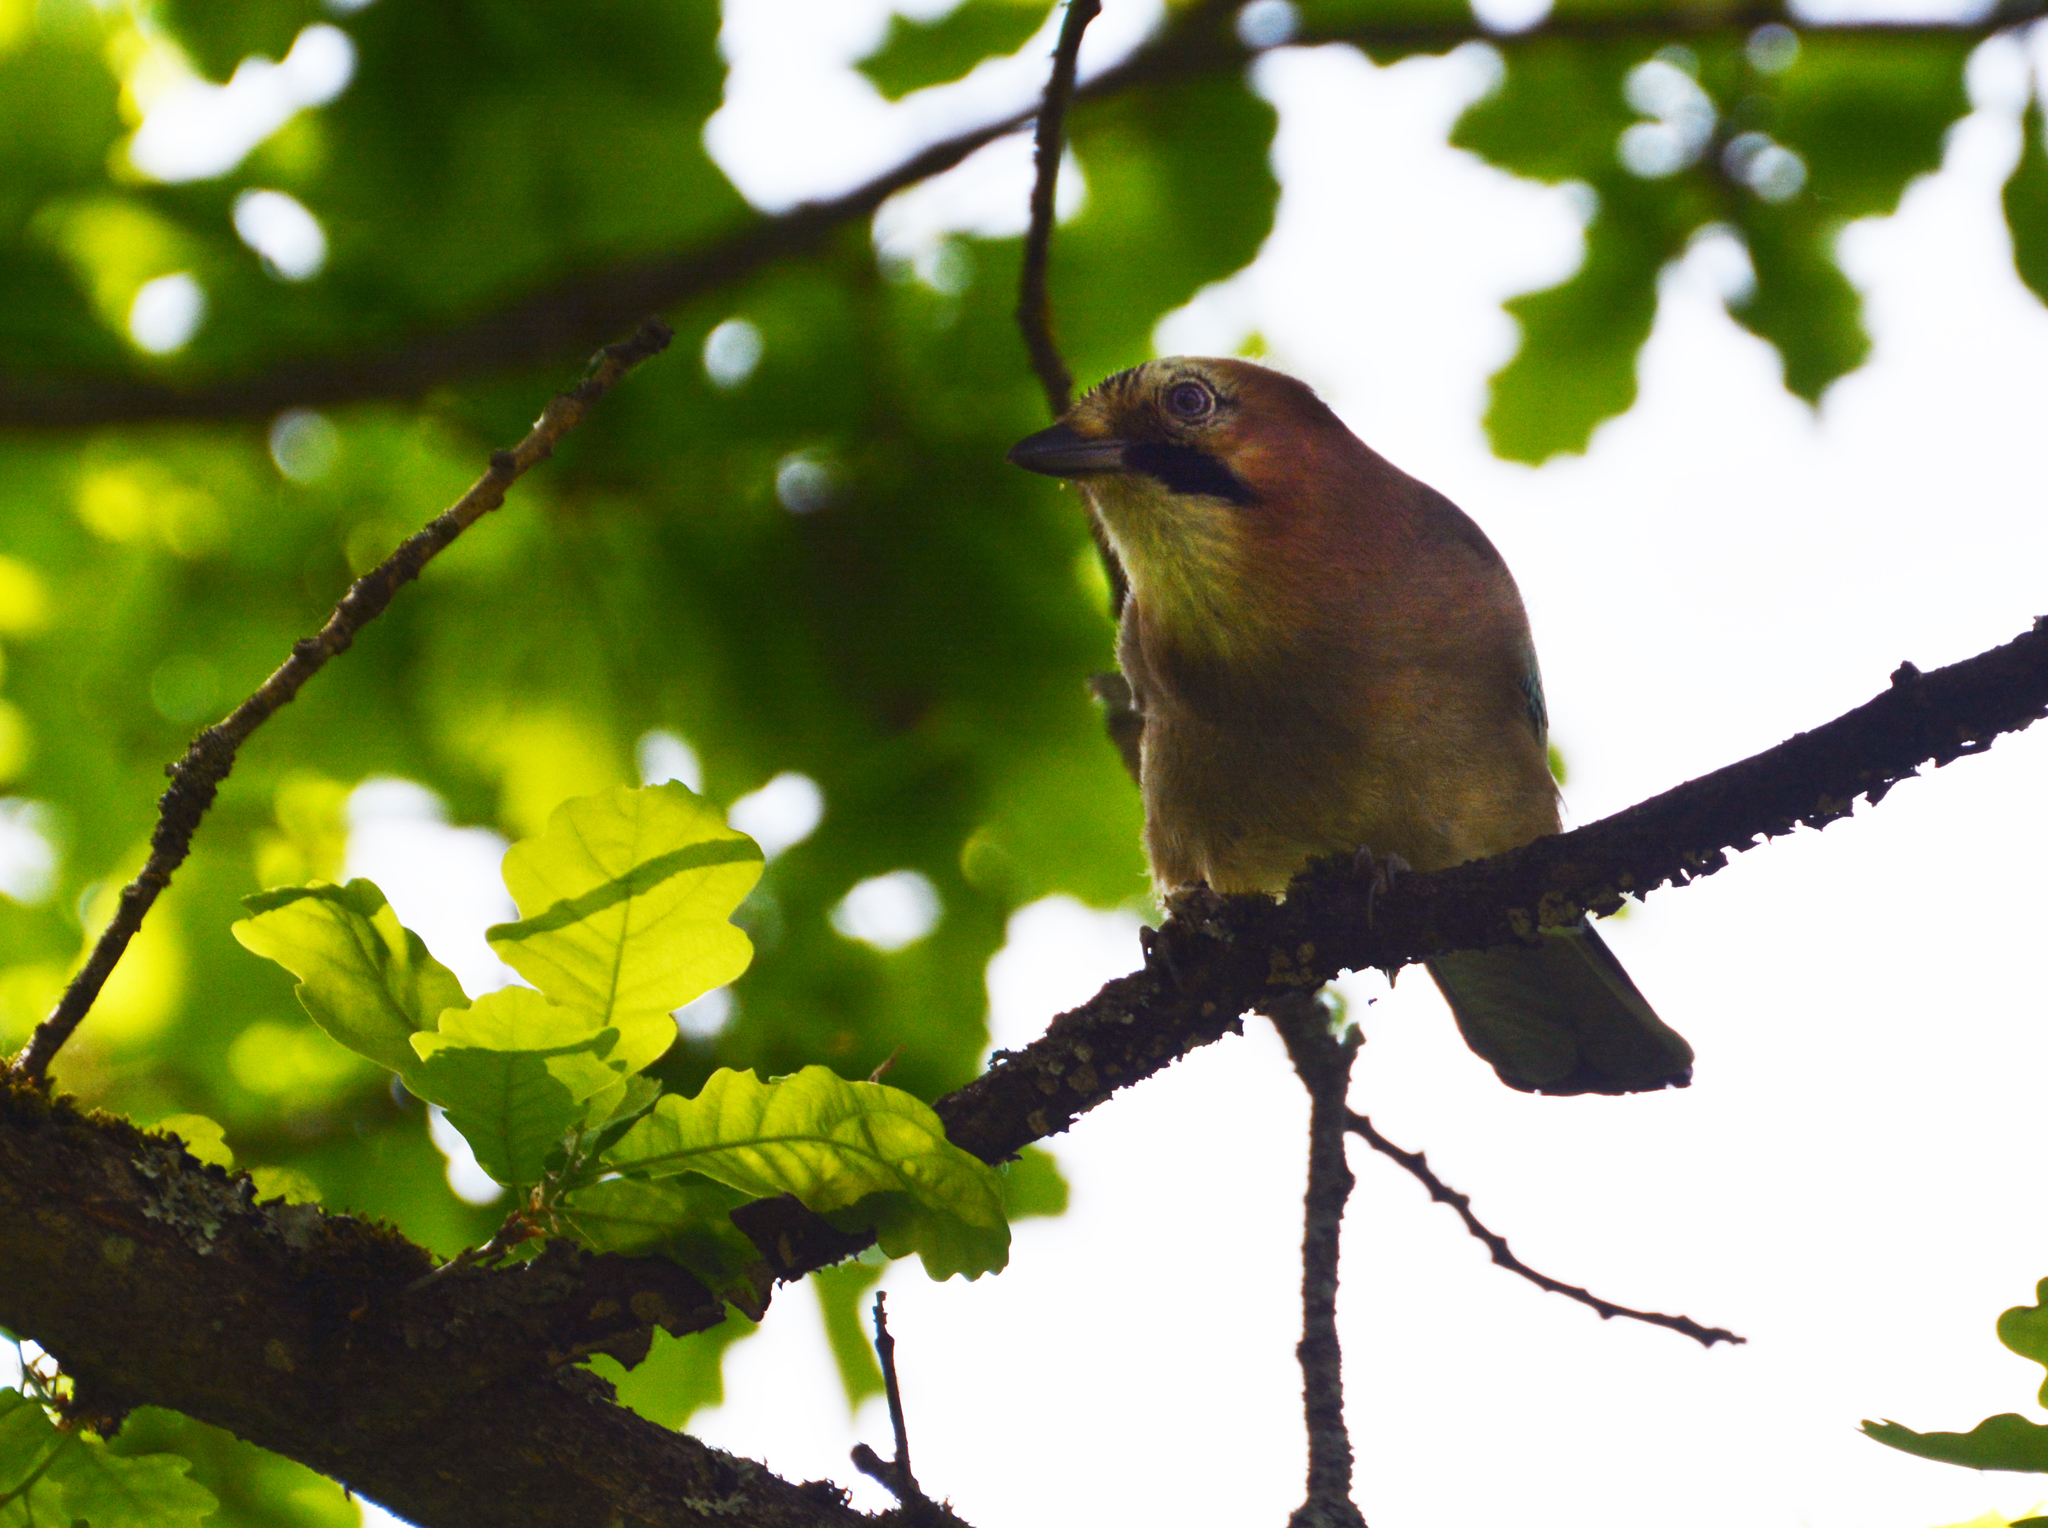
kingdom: Animalia
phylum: Chordata
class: Aves
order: Passeriformes
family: Corvidae
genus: Garrulus
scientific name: Garrulus glandarius
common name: Eurasian jay
